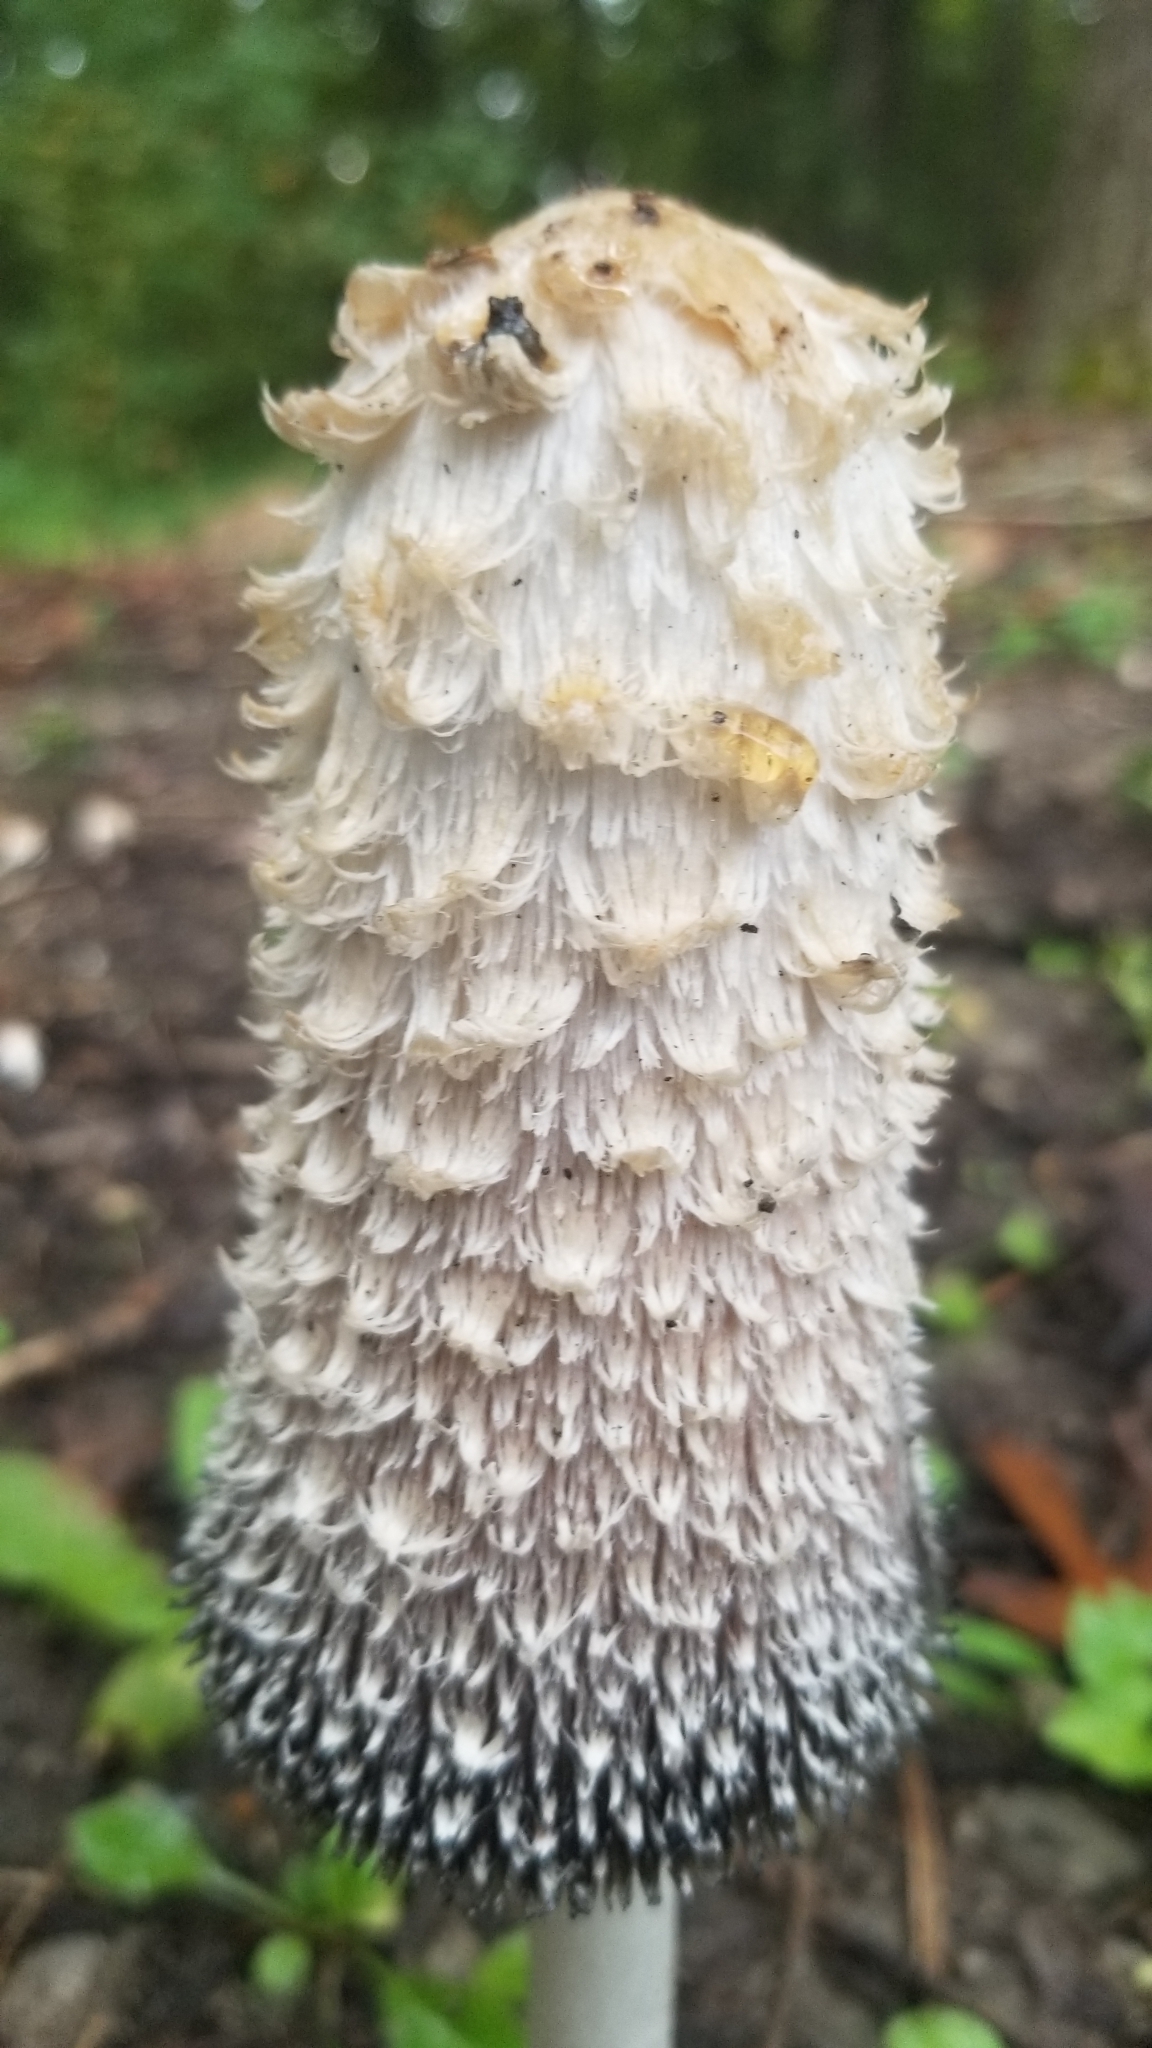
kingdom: Fungi
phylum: Basidiomycota
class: Agaricomycetes
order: Agaricales
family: Agaricaceae
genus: Coprinus
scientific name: Coprinus comatus
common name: Lawyer's wig
